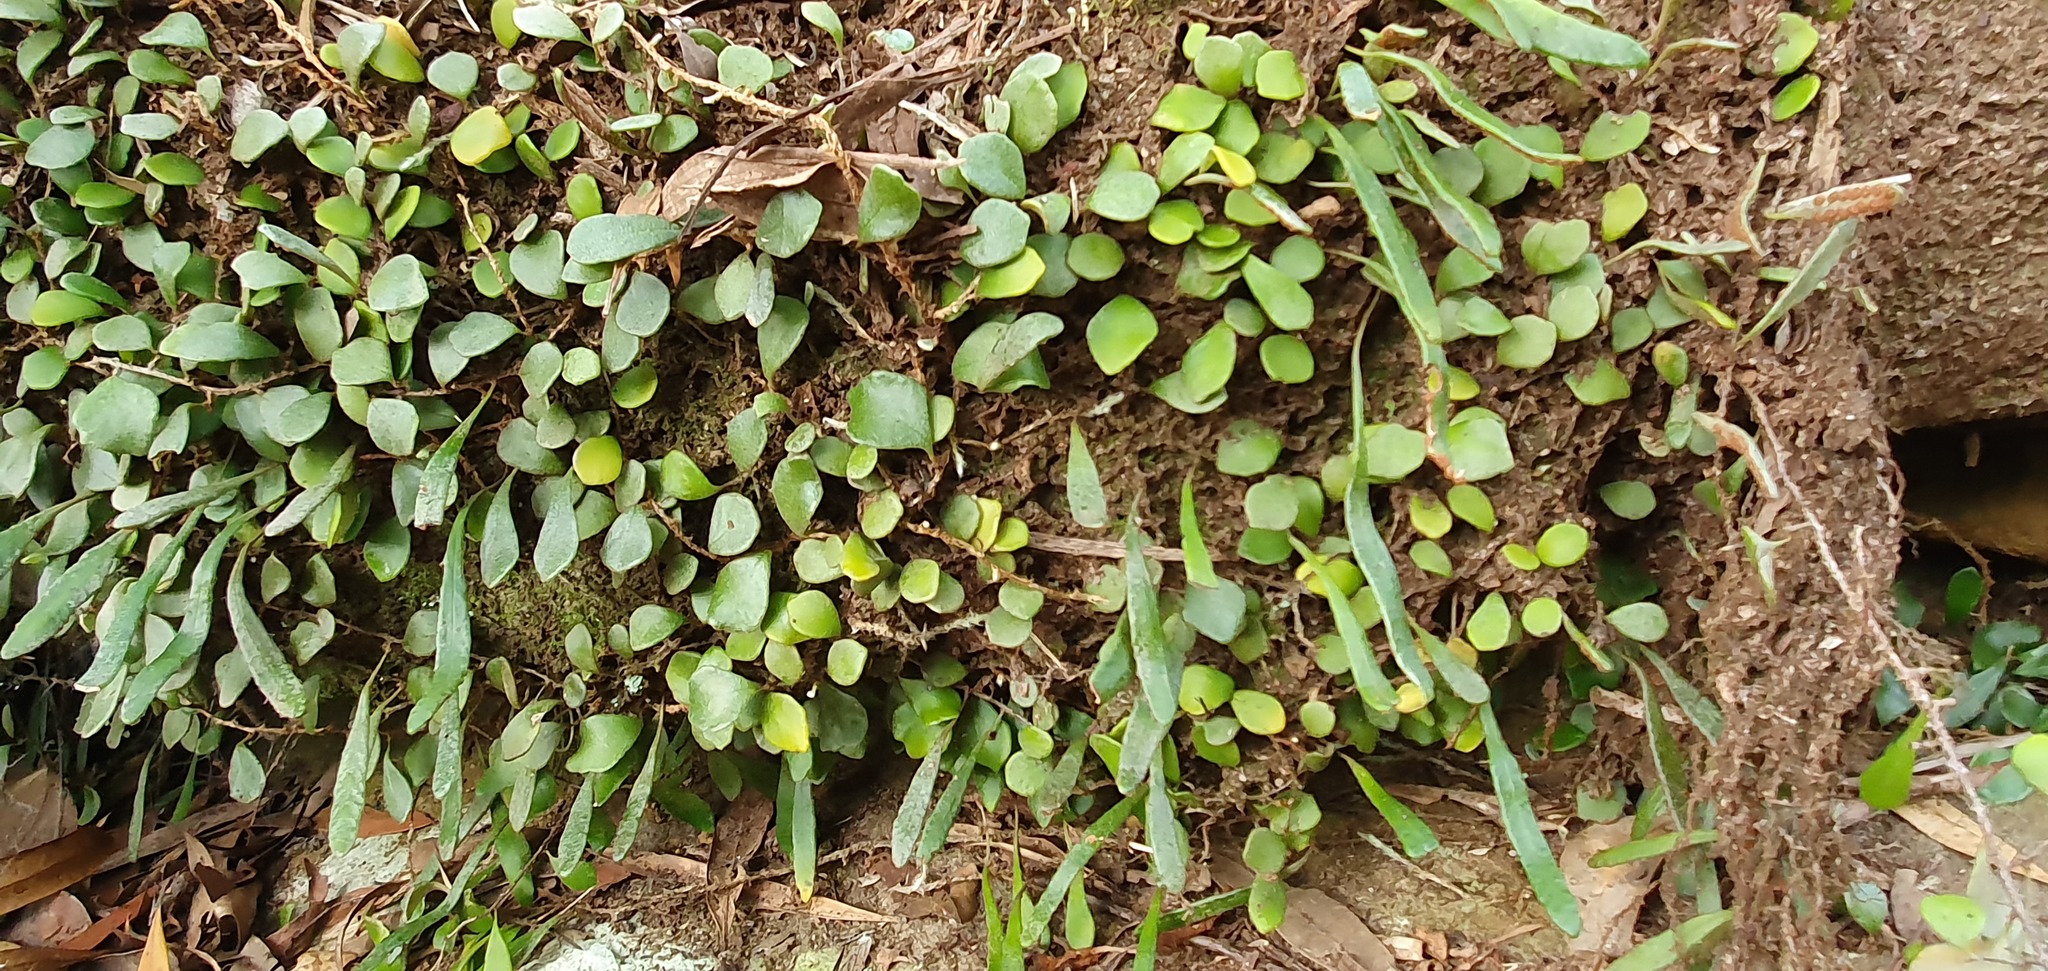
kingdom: Plantae
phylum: Tracheophyta
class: Polypodiopsida
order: Polypodiales
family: Polypodiaceae
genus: Pyrrosia
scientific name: Pyrrosia rupestris
